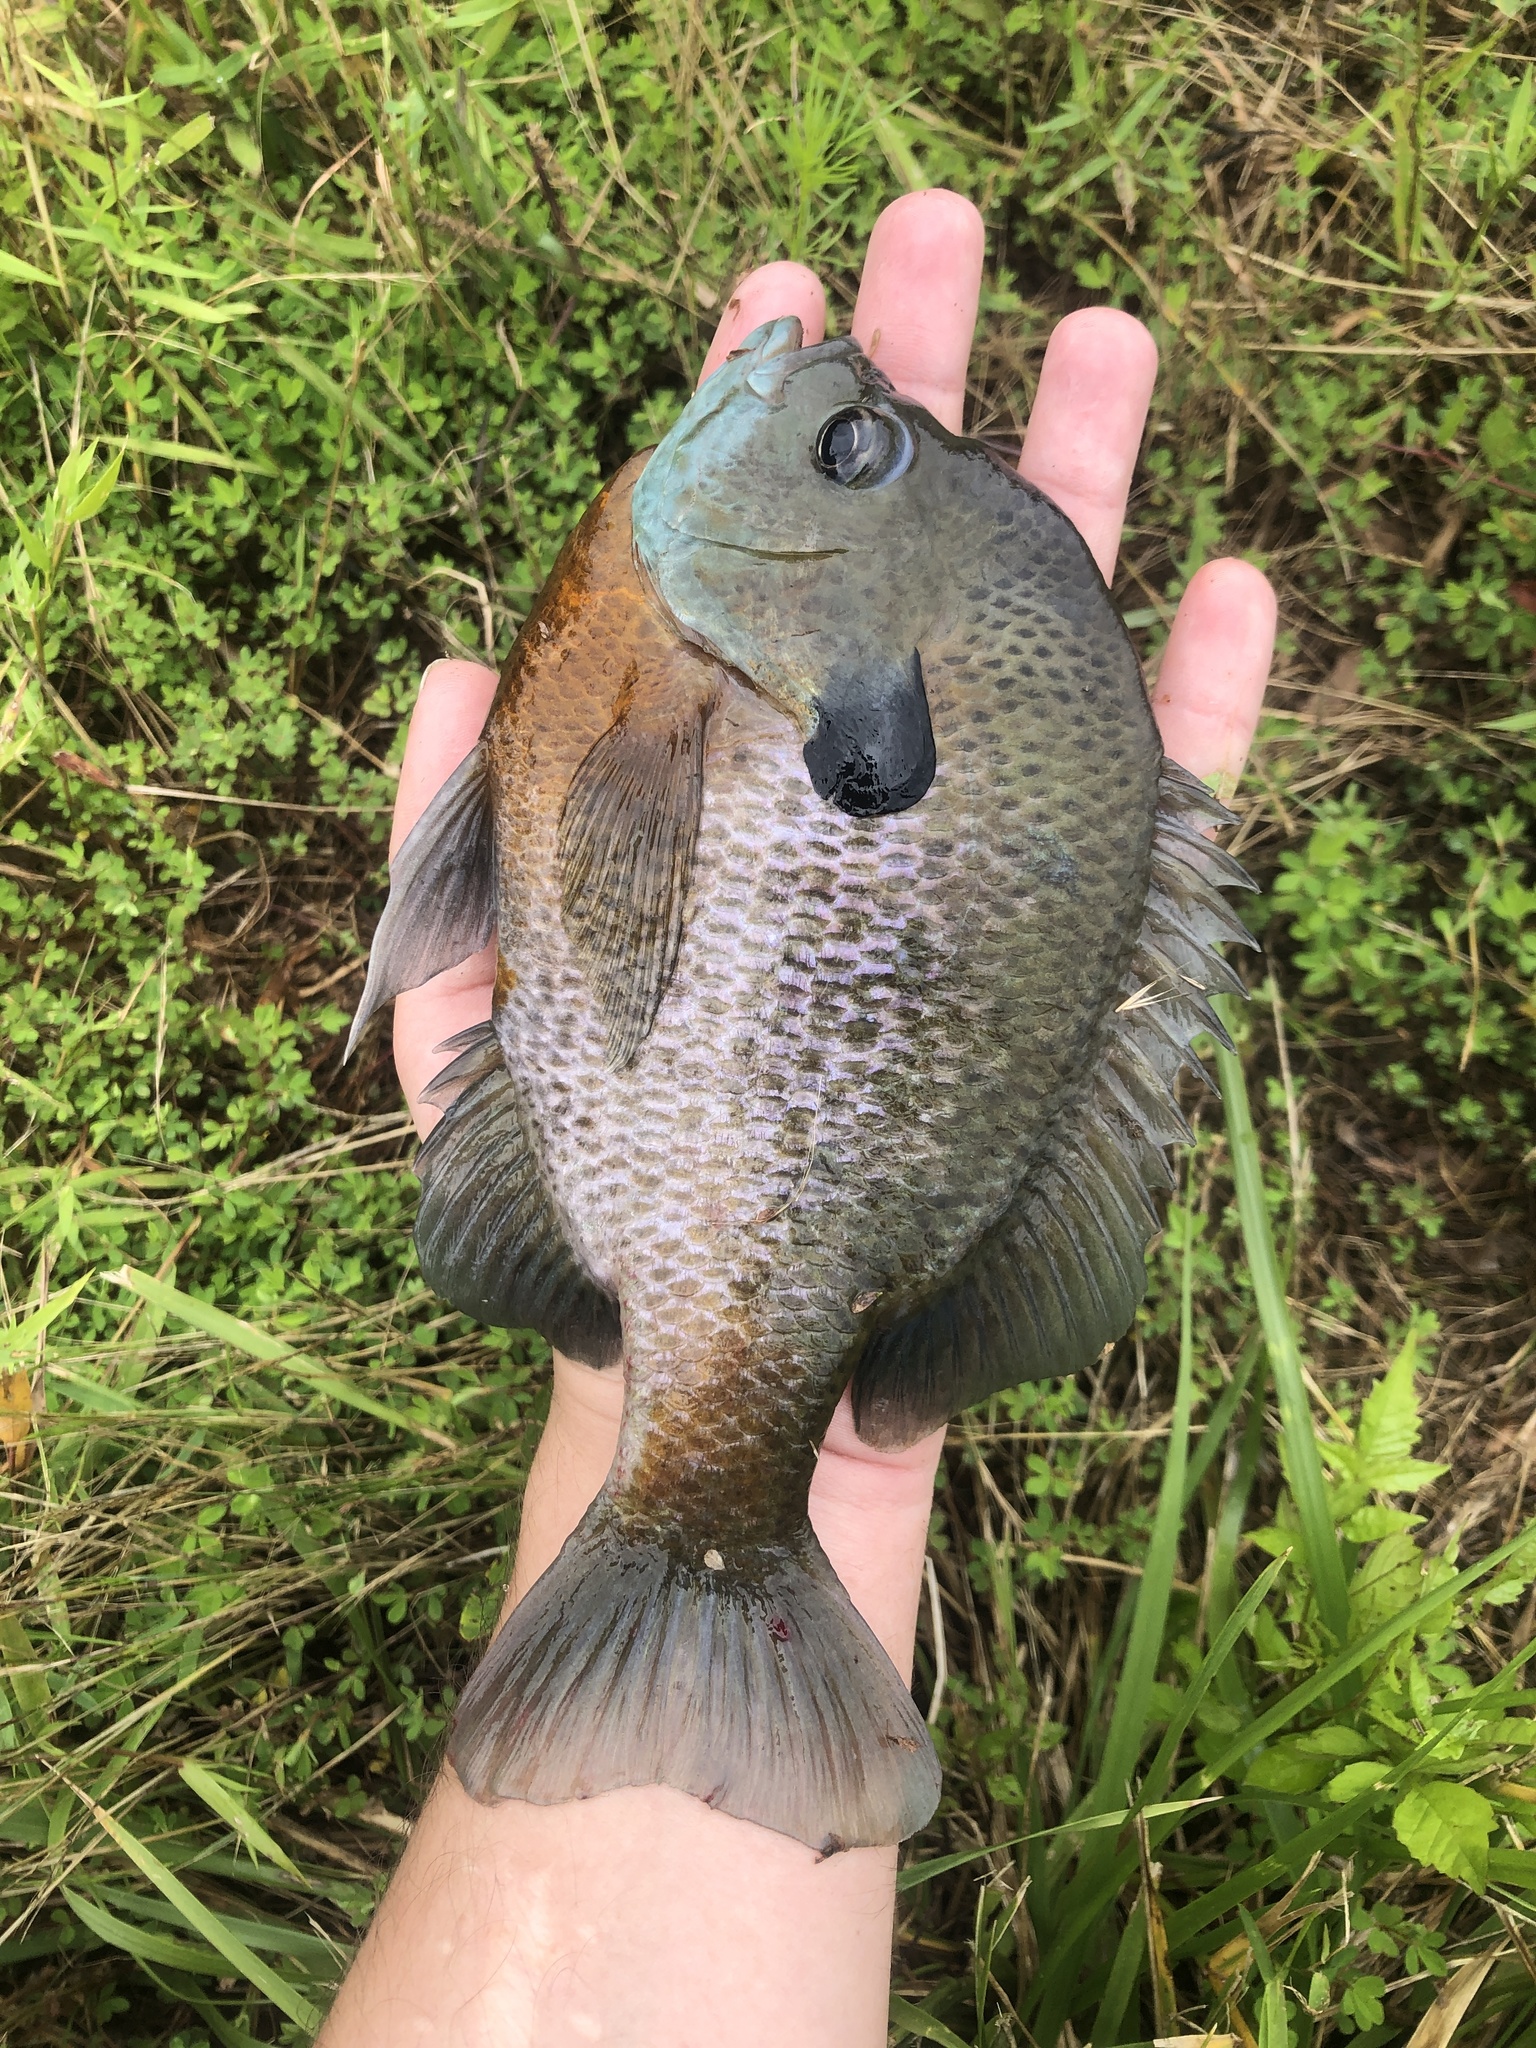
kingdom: Animalia
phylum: Chordata
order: Perciformes
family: Centrarchidae
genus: Lepomis
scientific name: Lepomis macrochirus
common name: Bluegill
